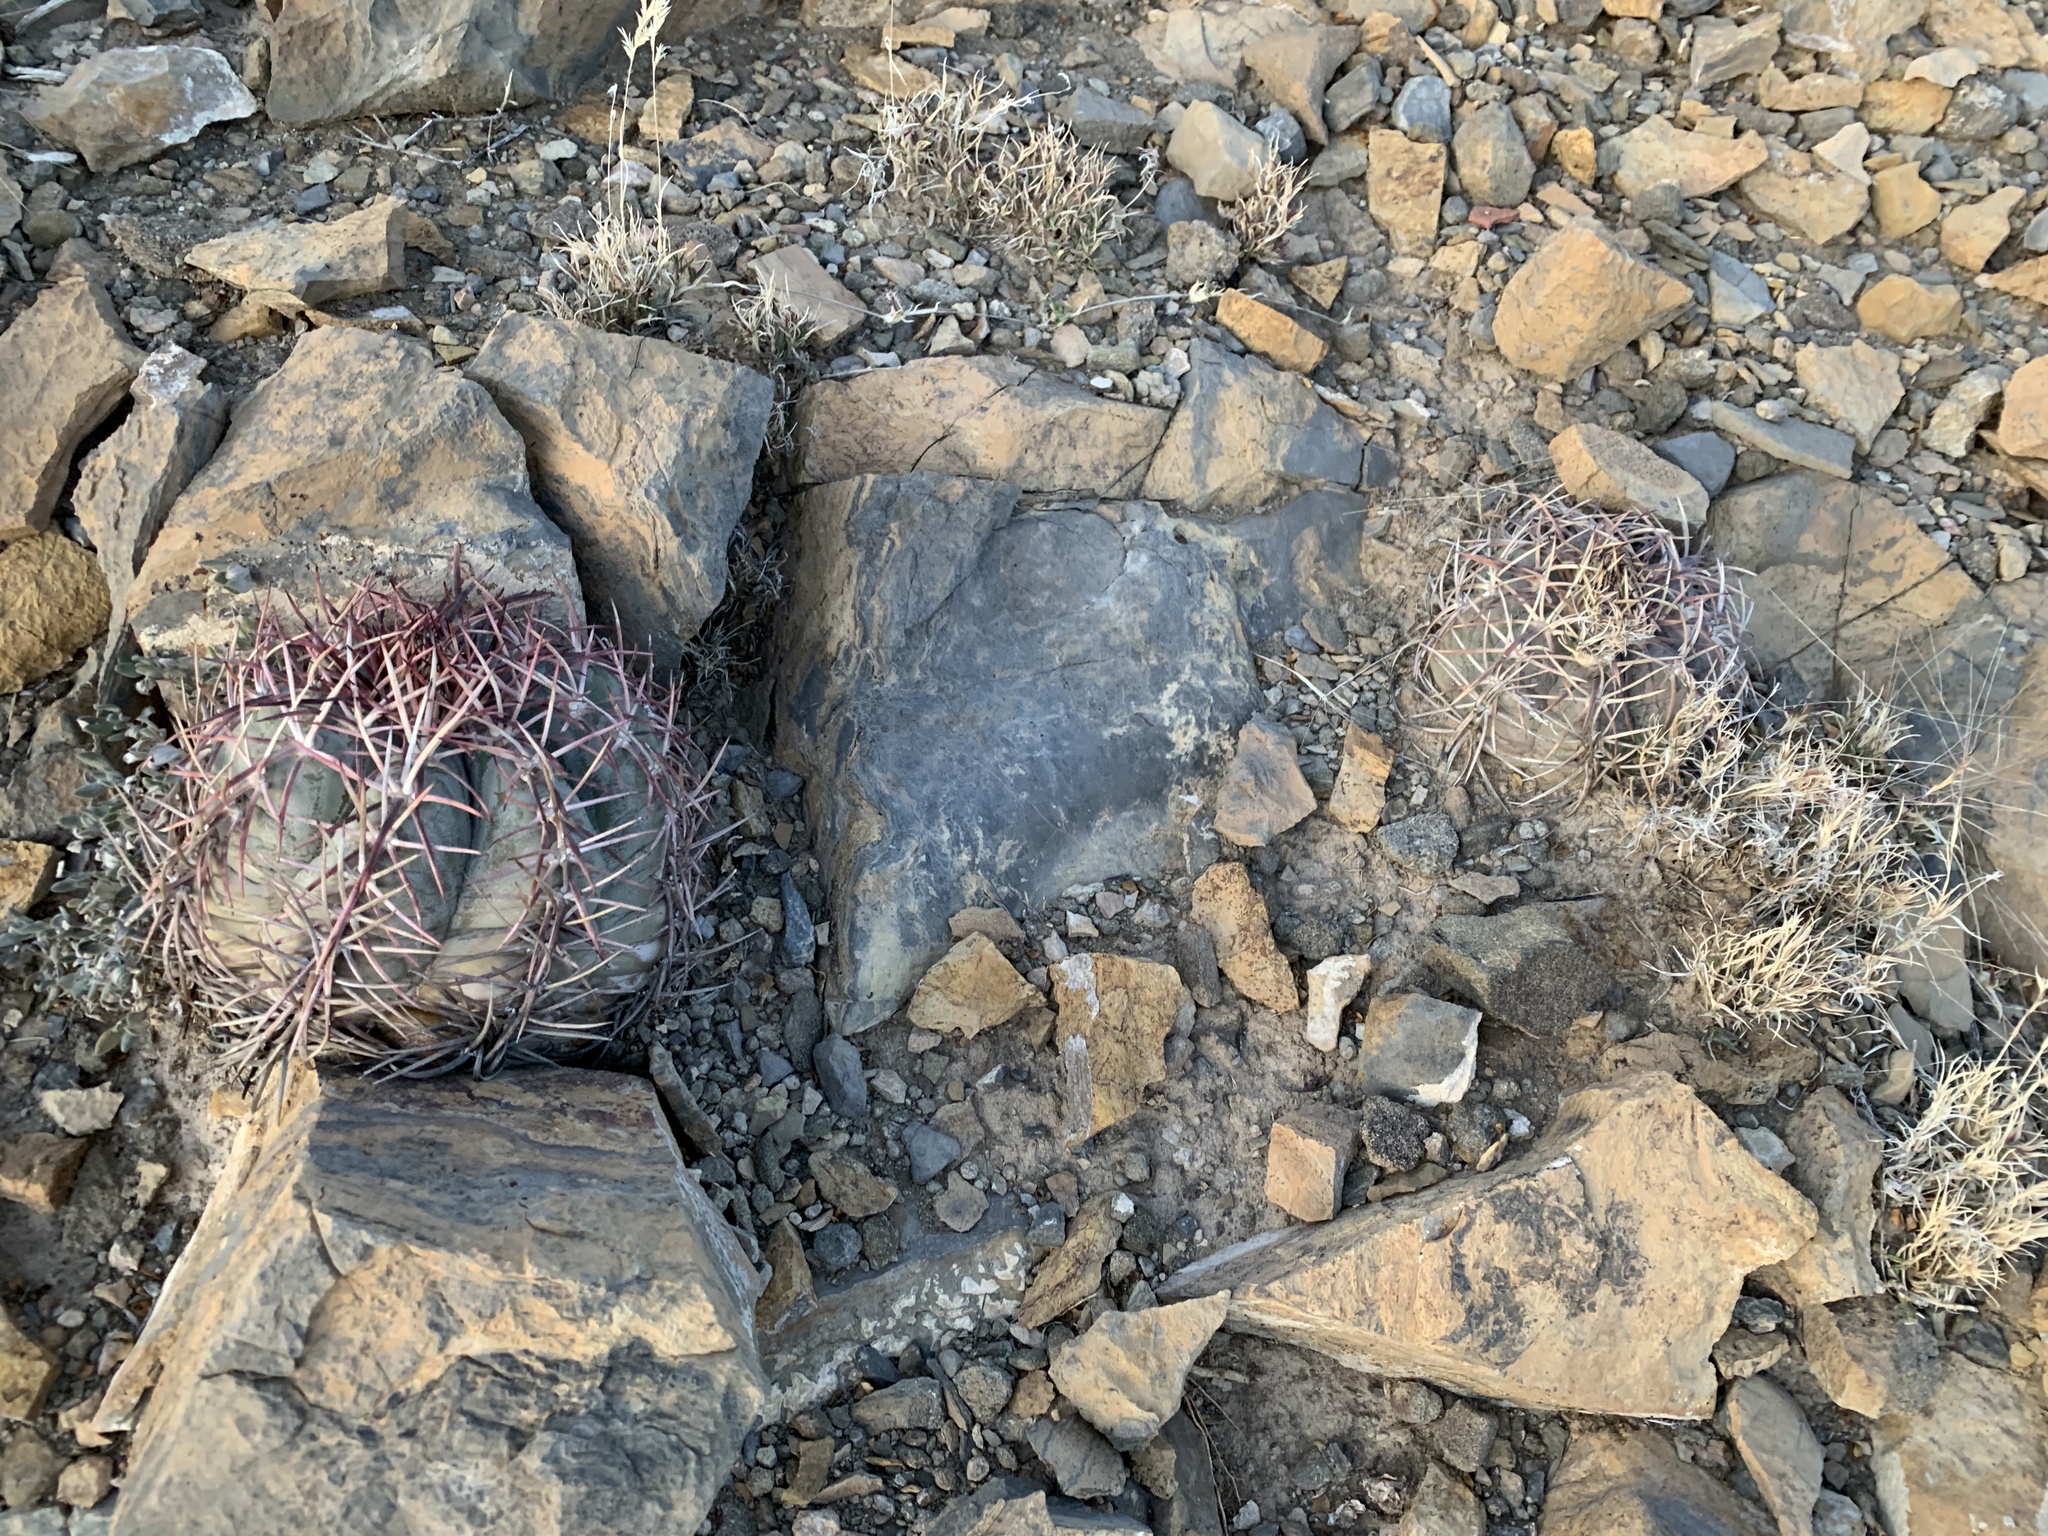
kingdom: Plantae
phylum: Tracheophyta
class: Magnoliopsida
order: Caryophyllales
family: Cactaceae
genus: Echinocactus
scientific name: Echinocactus horizonthalonius
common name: Devilshead
